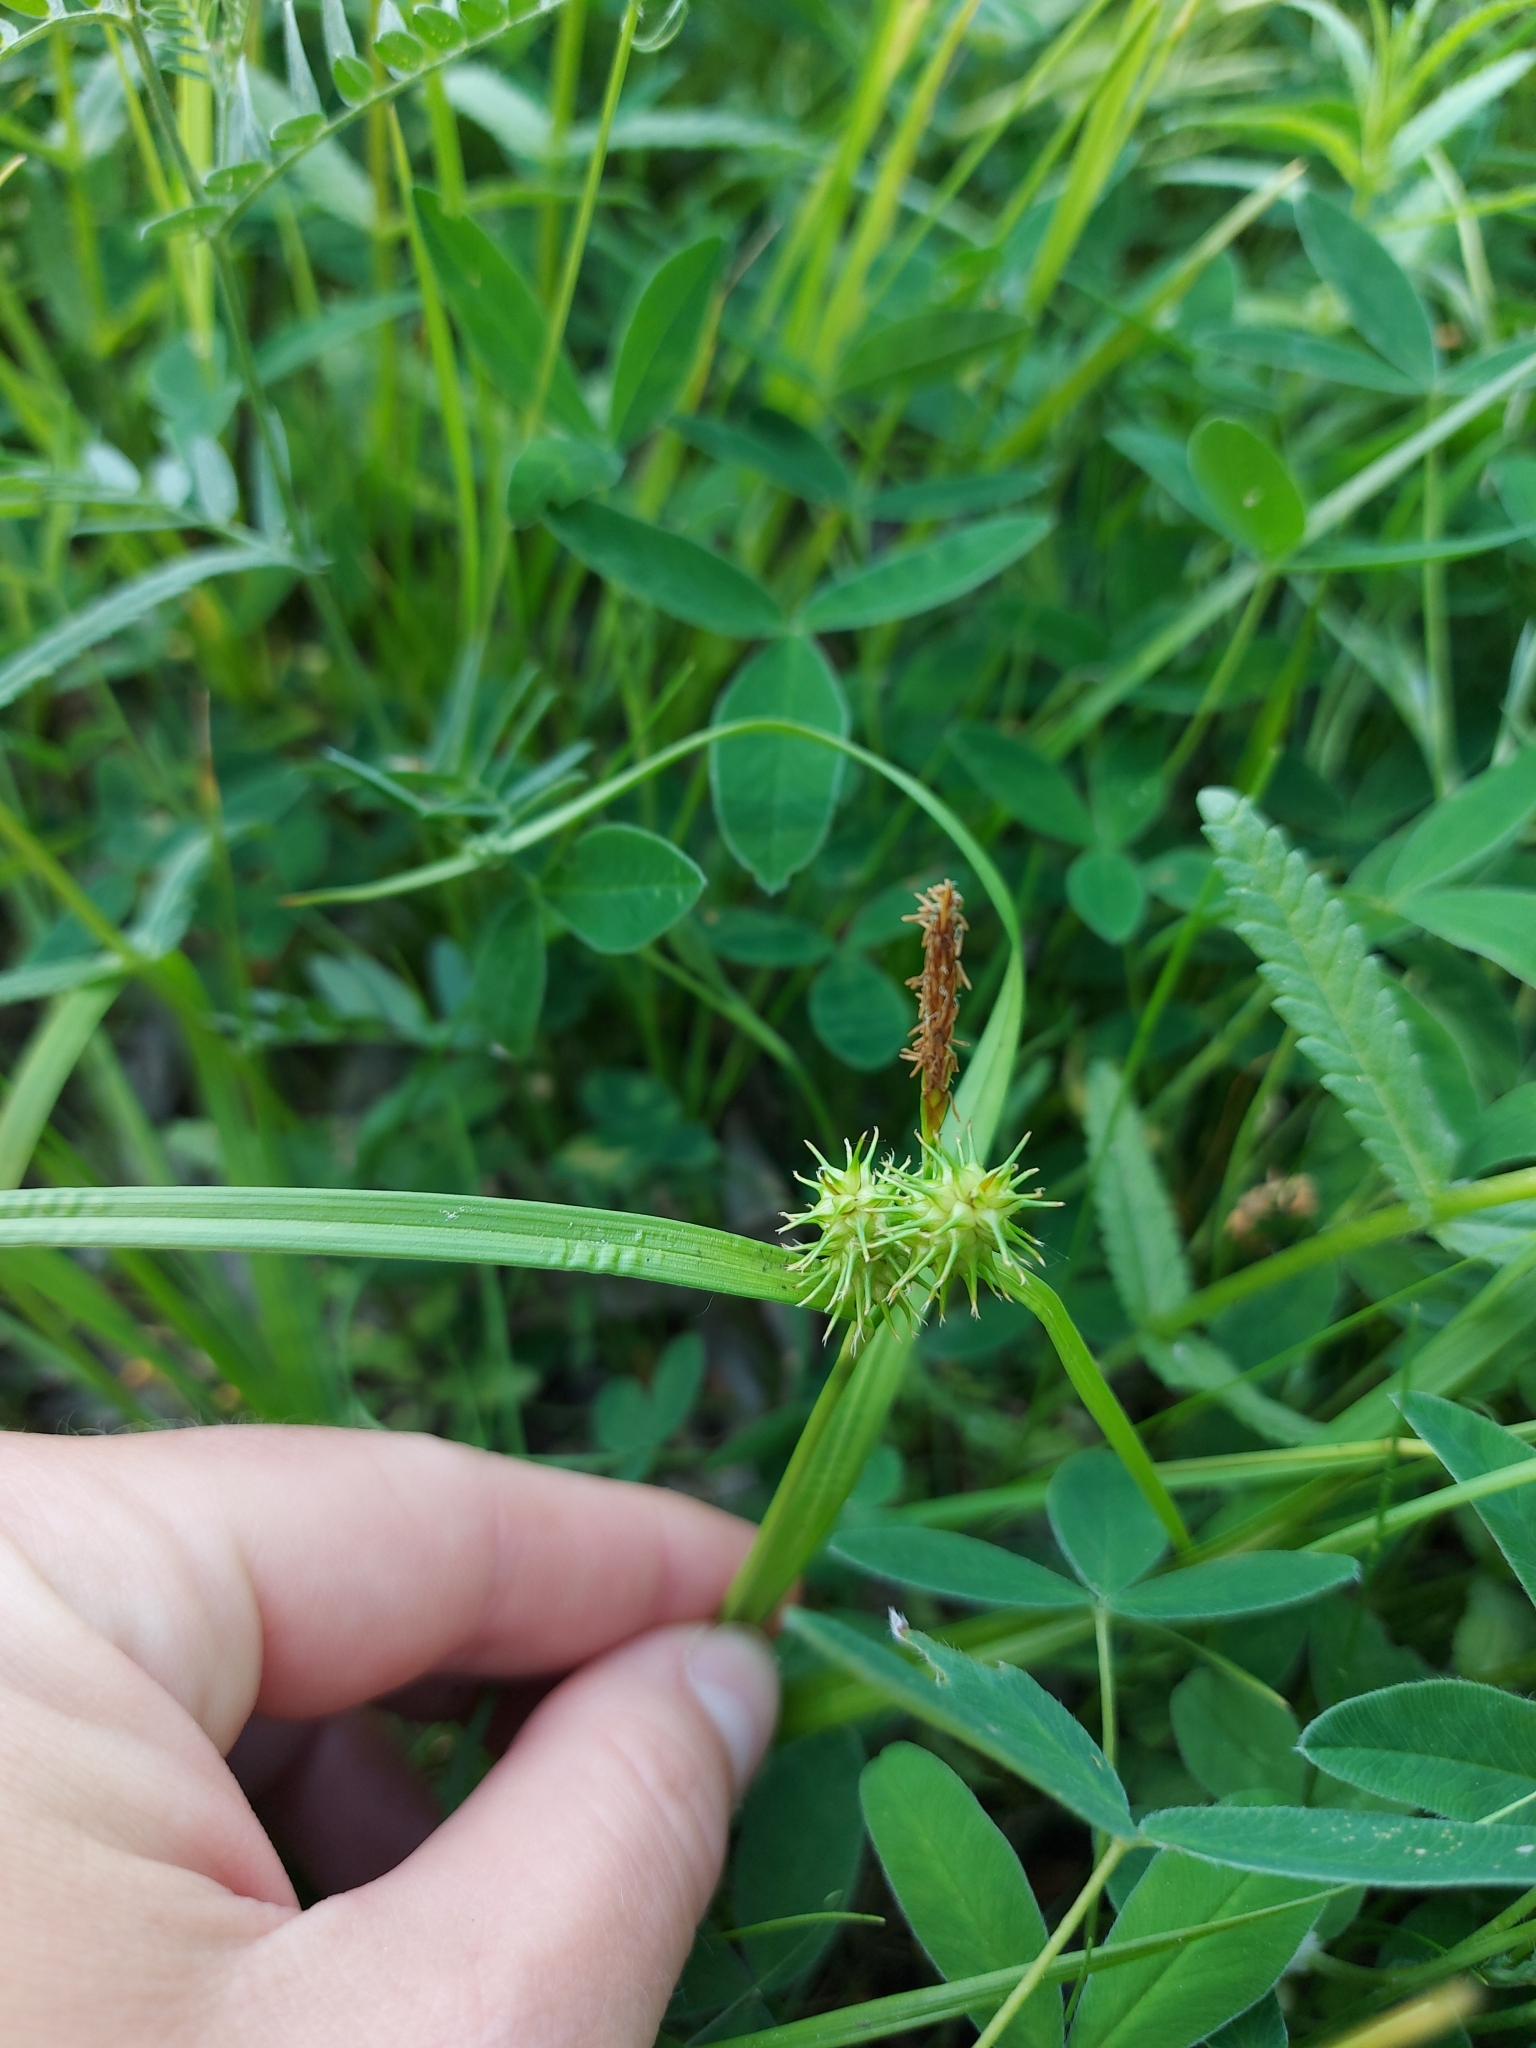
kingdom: Plantae
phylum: Tracheophyta
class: Liliopsida
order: Poales
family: Cyperaceae
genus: Carex
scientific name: Carex flava
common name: Large yellow-sedge
